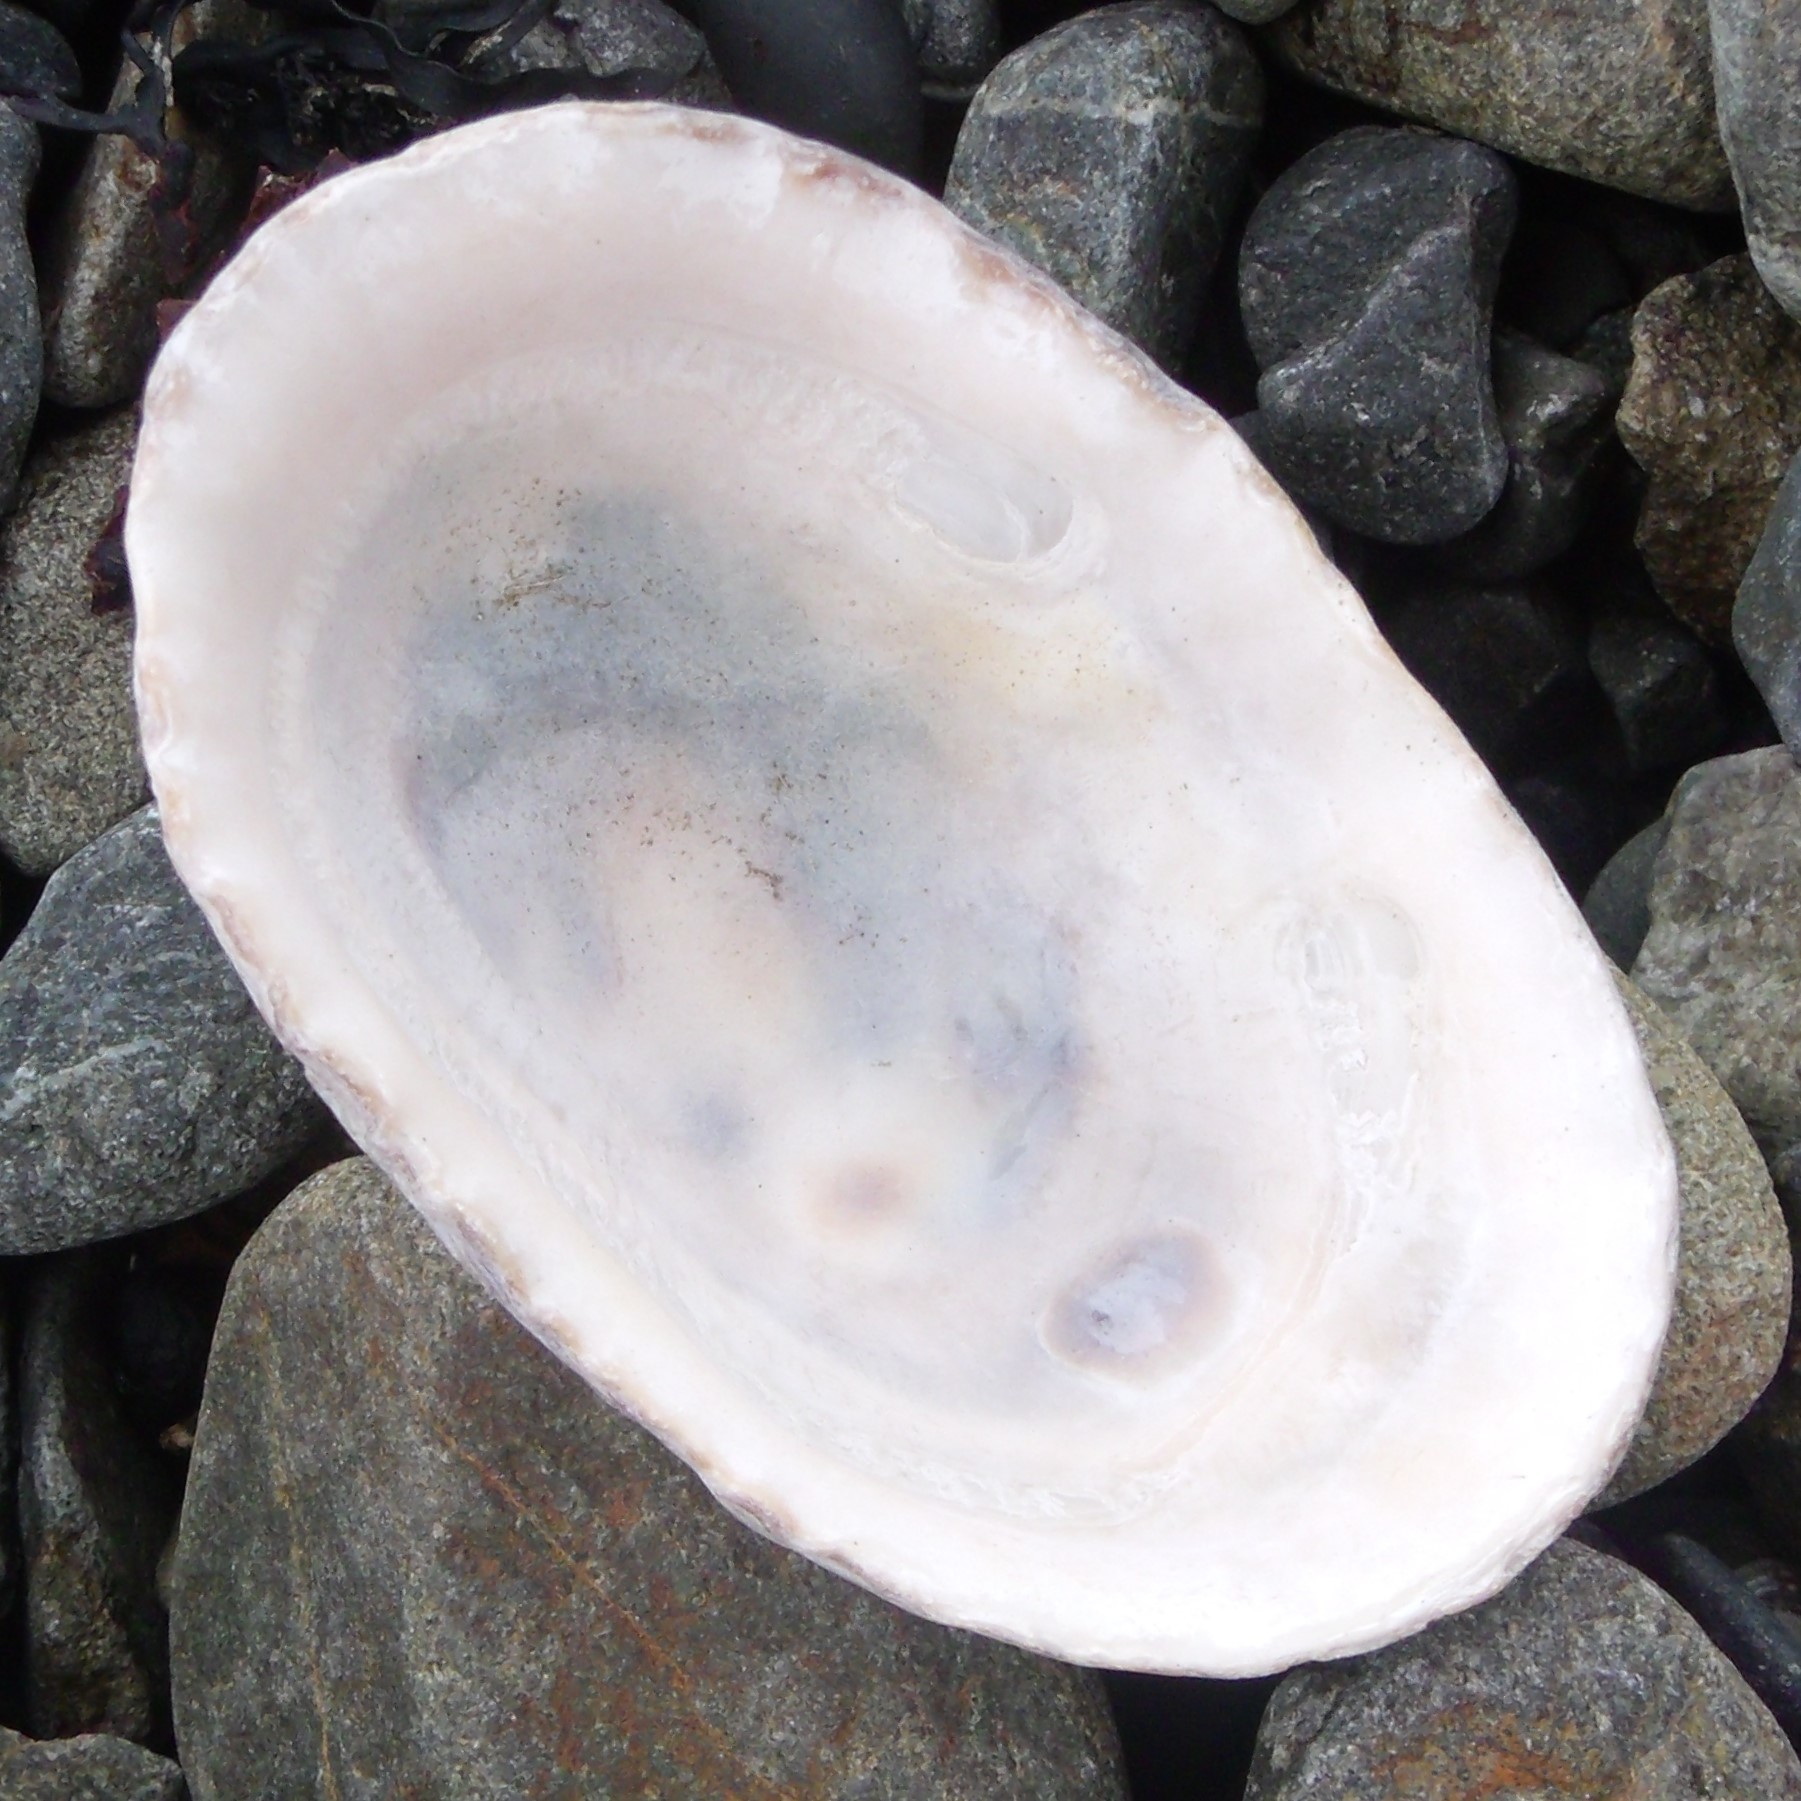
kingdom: Animalia
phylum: Mollusca
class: Gastropoda
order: Siphonariida
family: Siphonariidae
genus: Benhamina
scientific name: Benhamina obliquata
